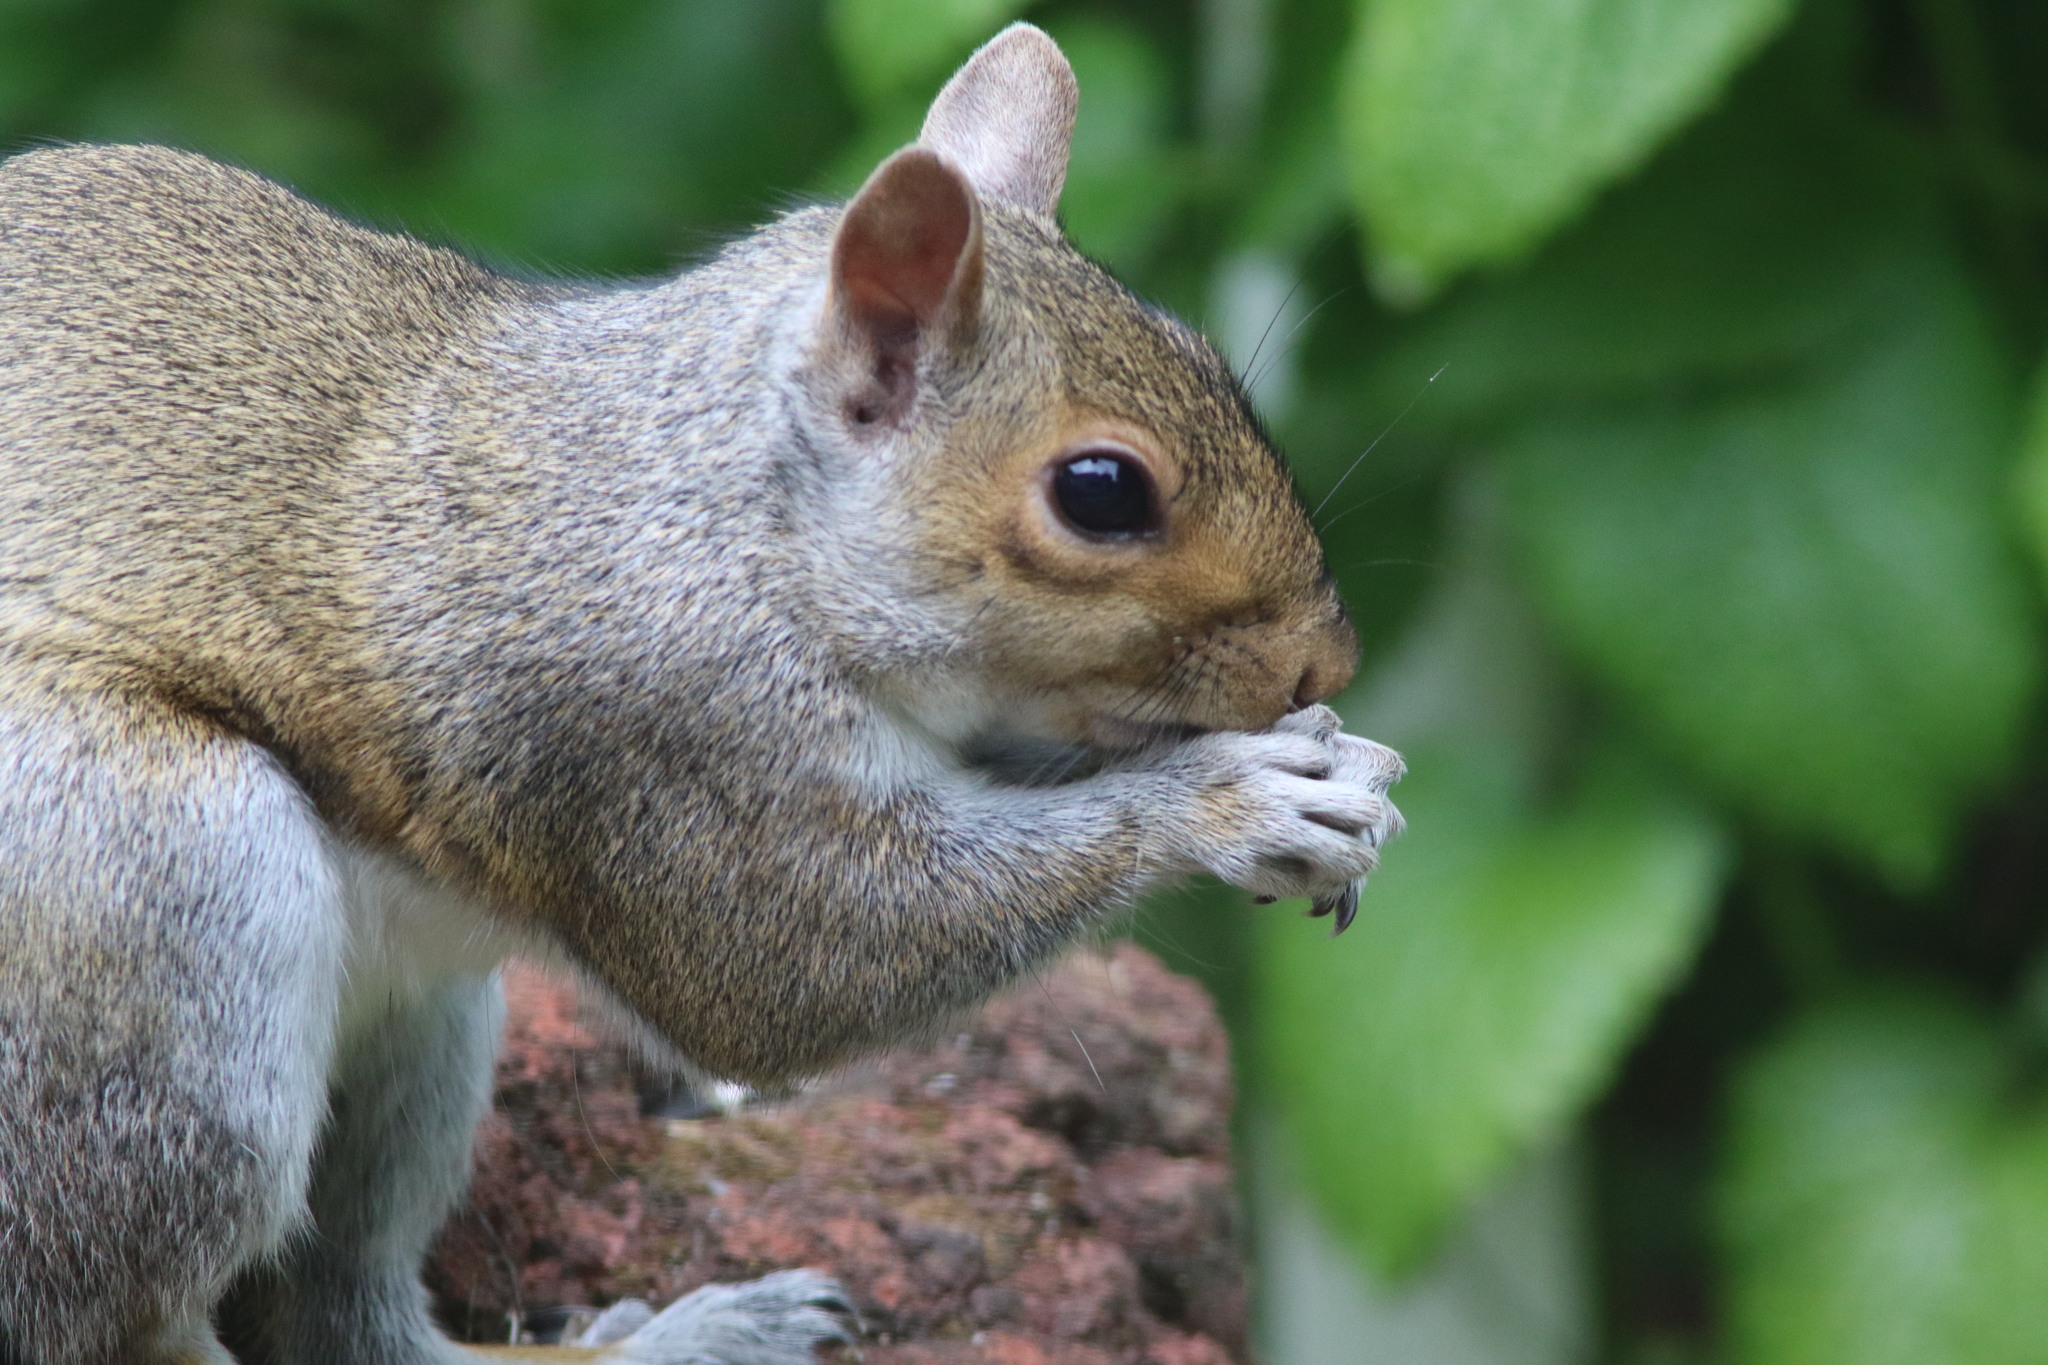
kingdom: Animalia
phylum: Chordata
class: Mammalia
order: Rodentia
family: Sciuridae
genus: Sciurus
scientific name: Sciurus carolinensis
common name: Eastern gray squirrel
